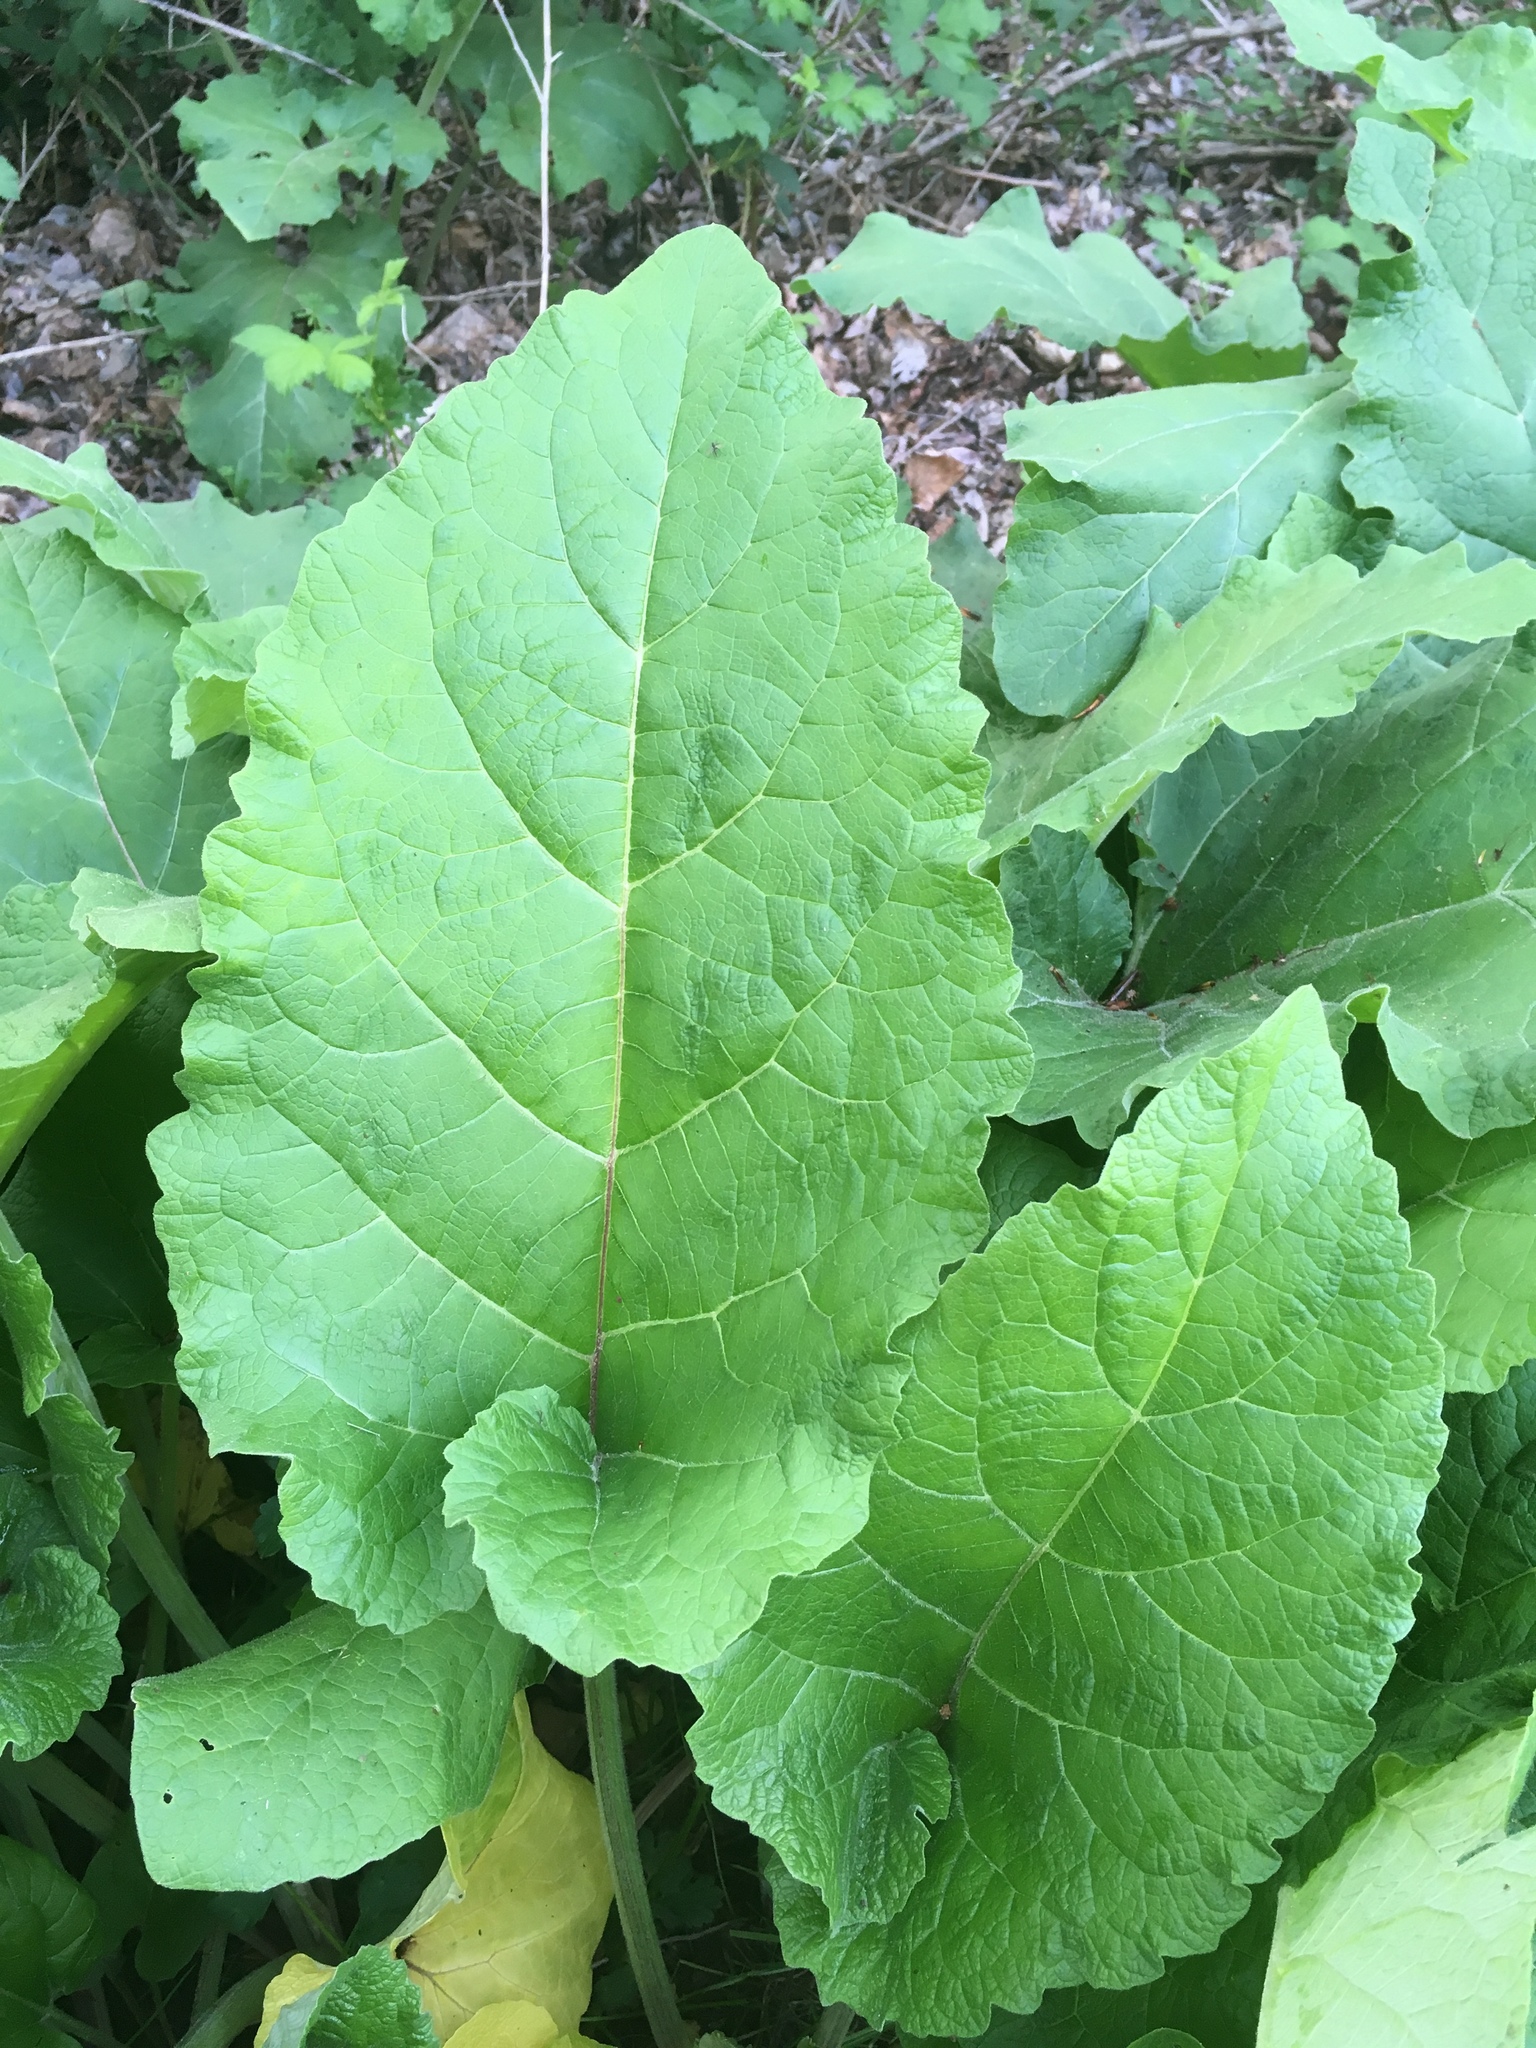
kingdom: Plantae
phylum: Tracheophyta
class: Magnoliopsida
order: Asterales
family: Asteraceae
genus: Arctium
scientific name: Arctium minus
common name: Lesser burdock
